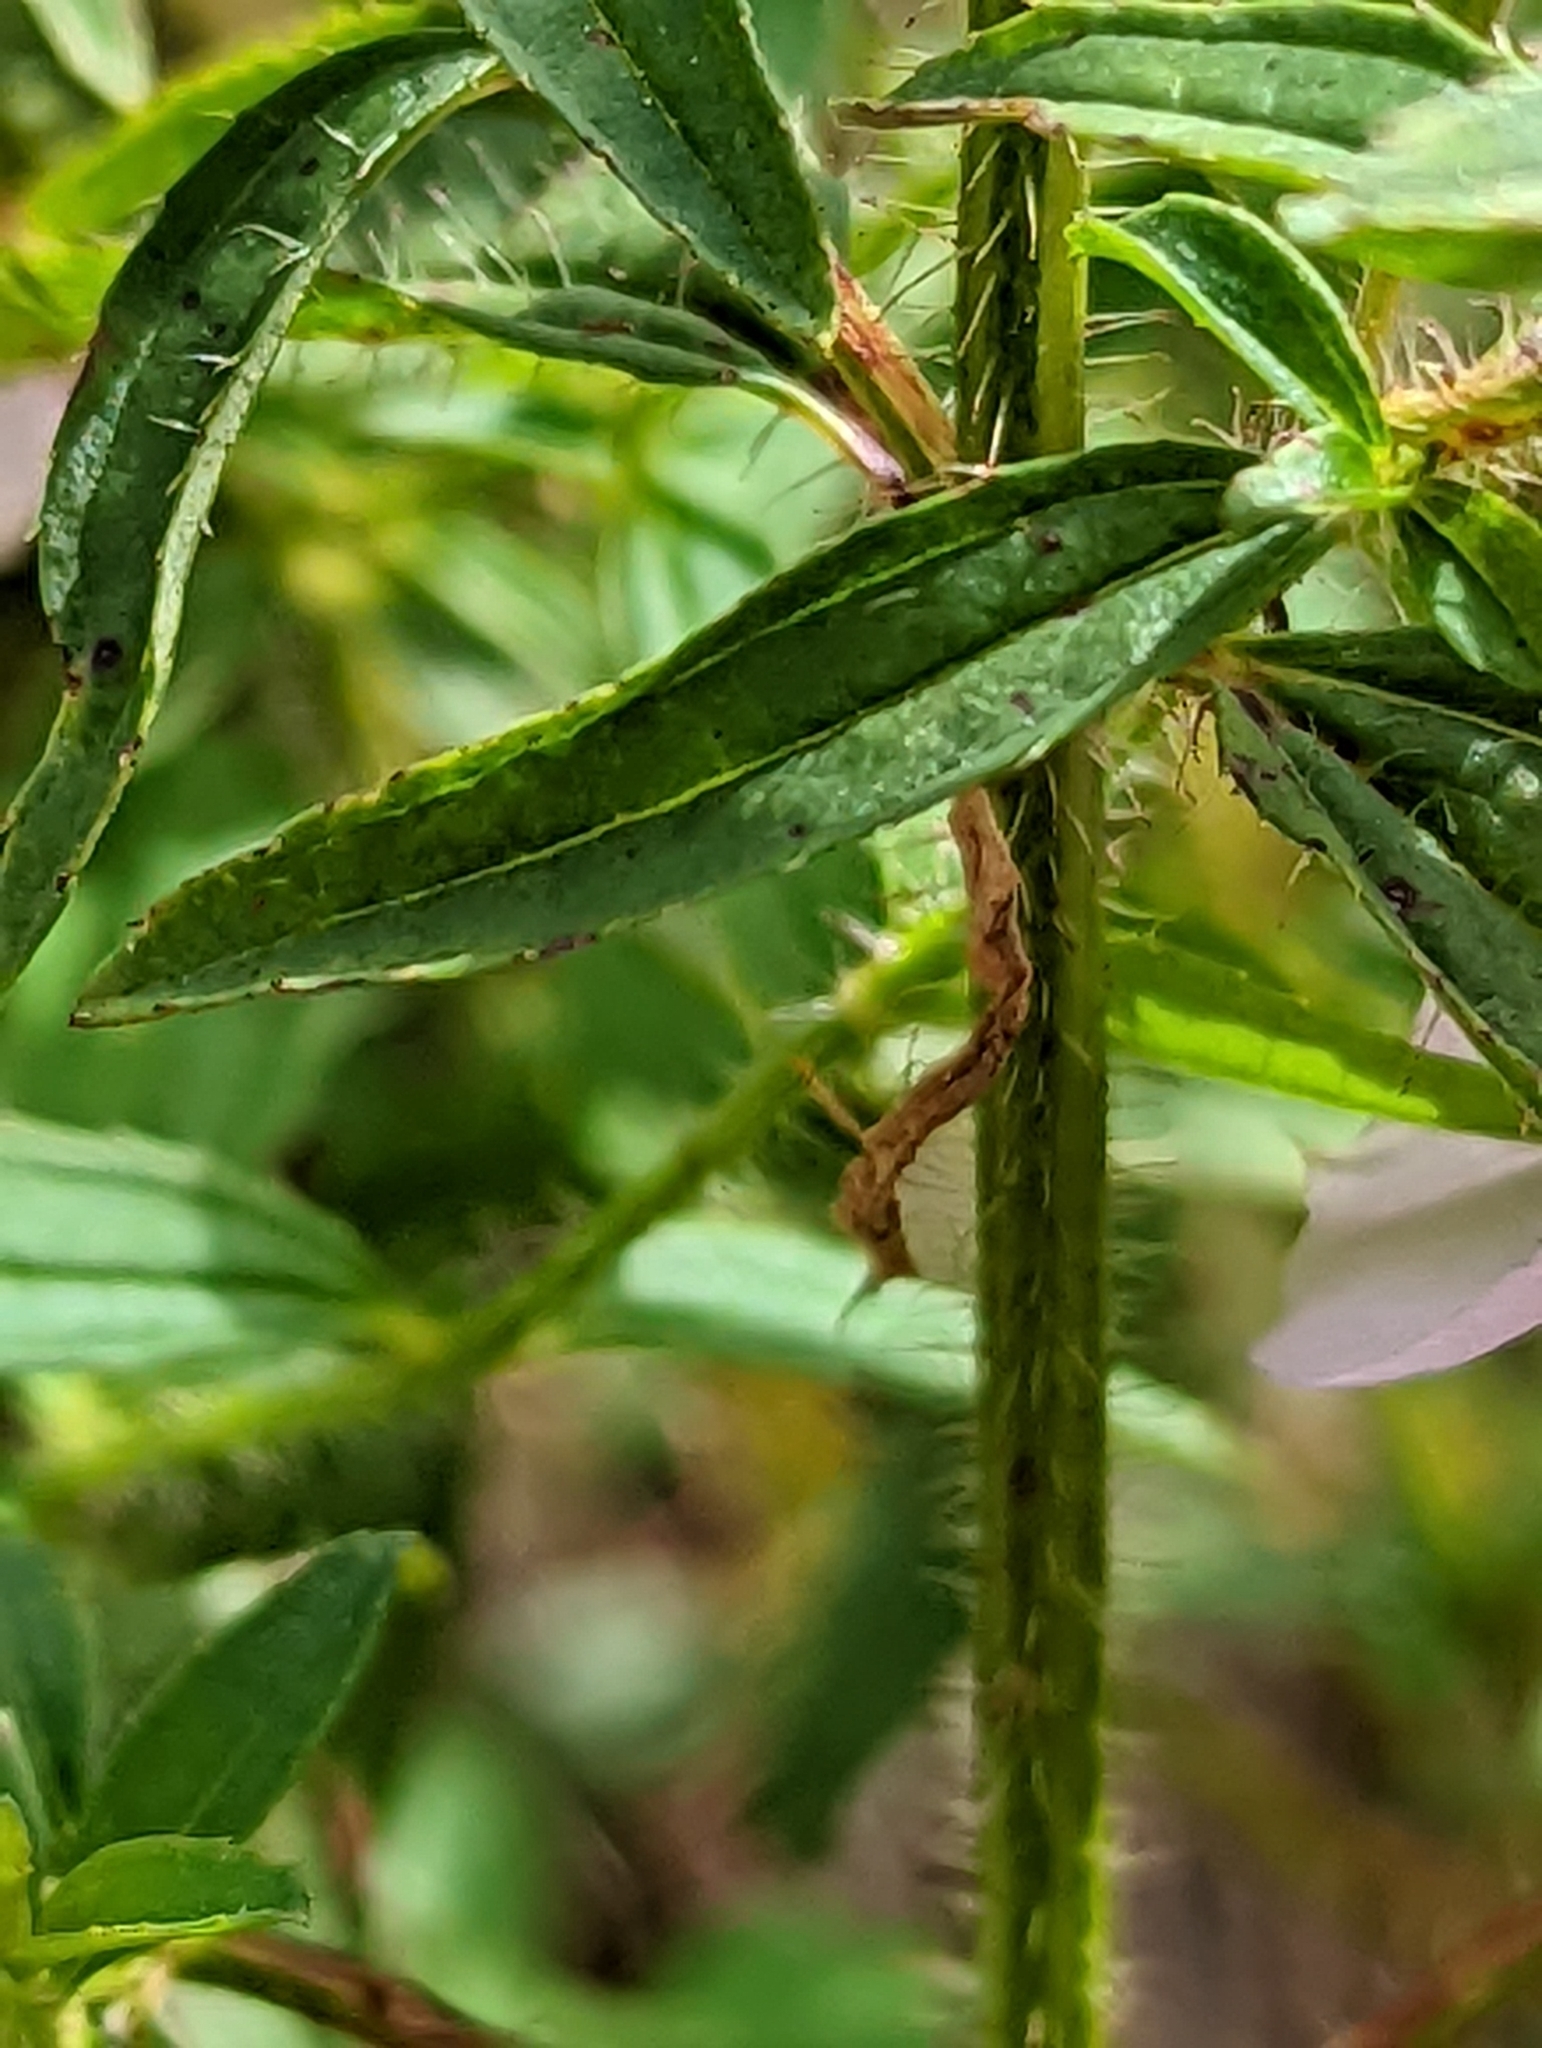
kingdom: Plantae
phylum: Tracheophyta
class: Magnoliopsida
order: Myrtales
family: Melastomataceae
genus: Rhexia
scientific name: Rhexia mariana
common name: Dull meadow-pitcher
